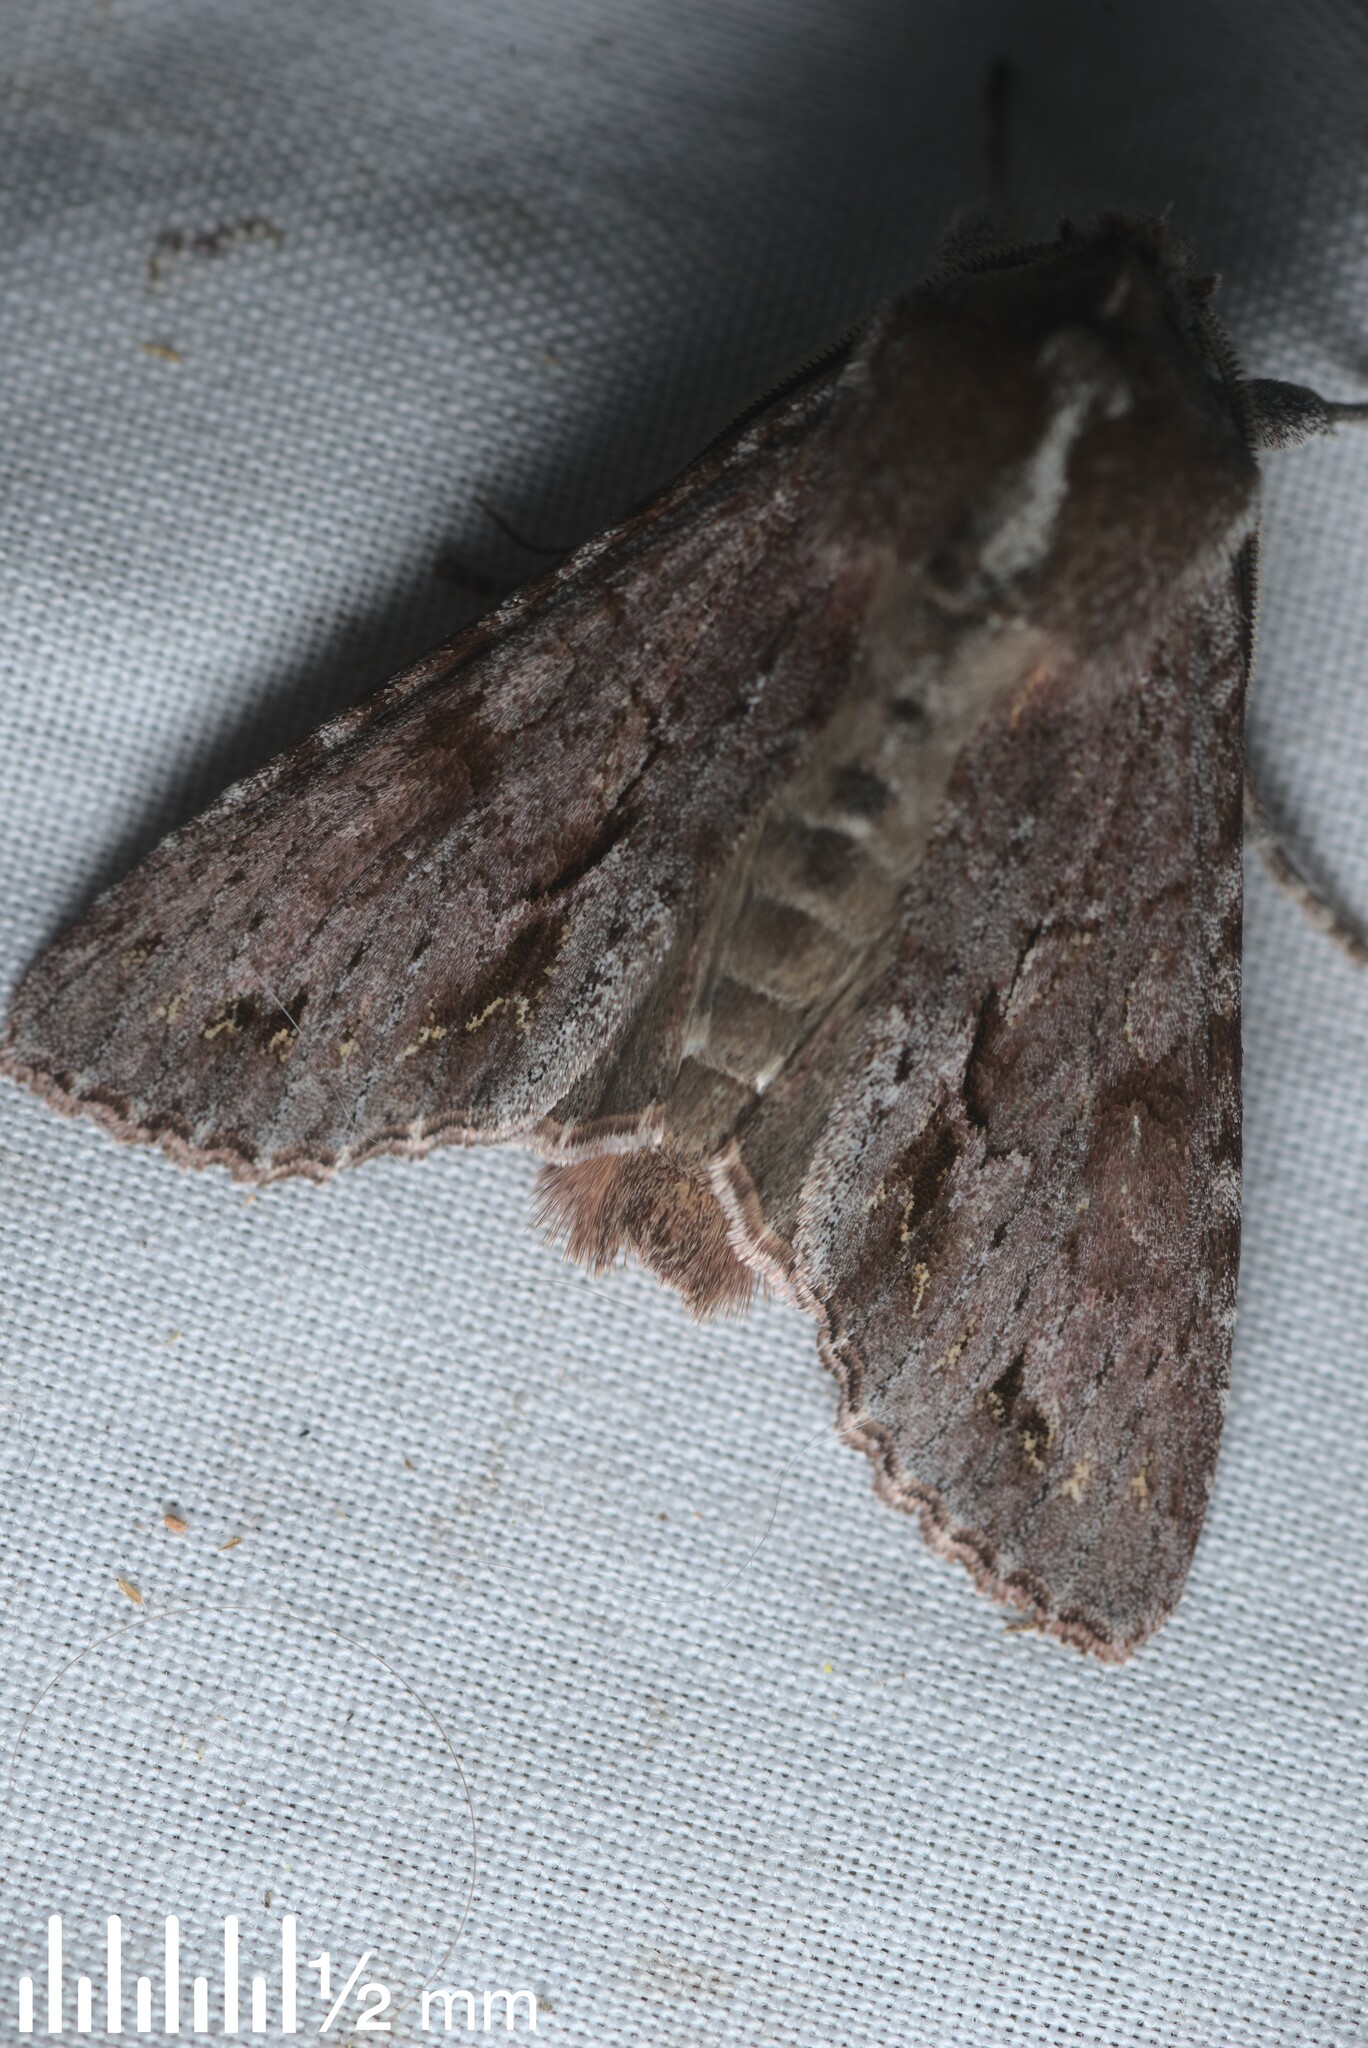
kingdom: Animalia
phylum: Arthropoda
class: Insecta
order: Lepidoptera
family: Noctuidae
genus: Ichneutica
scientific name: Ichneutica
